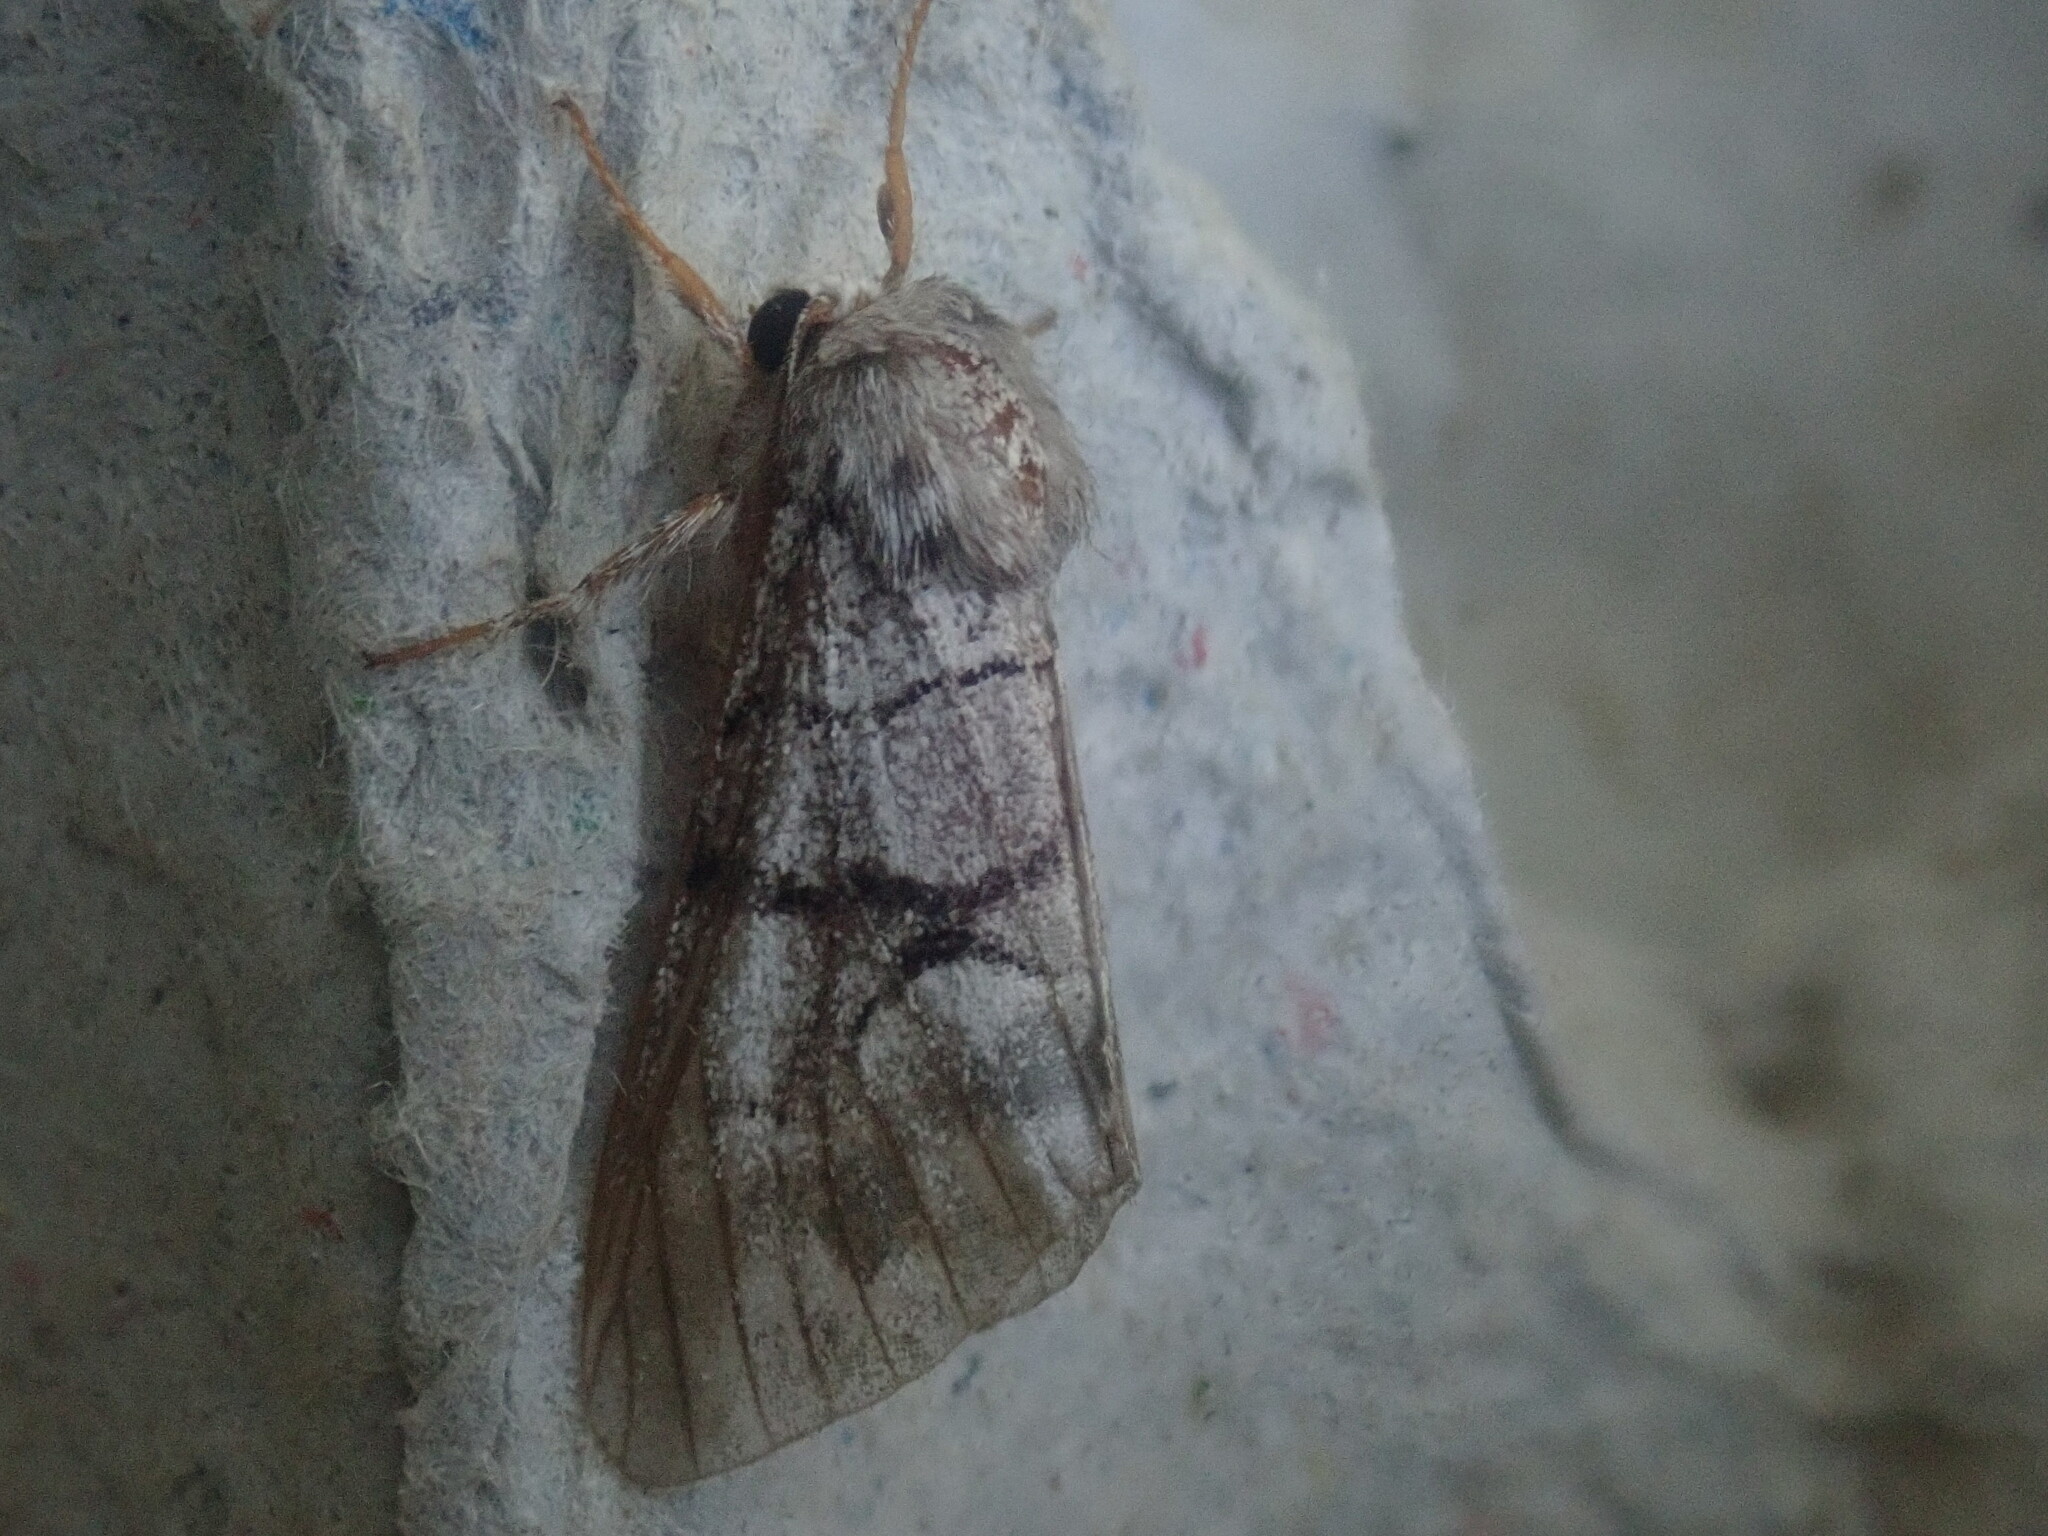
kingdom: Animalia
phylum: Arthropoda
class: Insecta
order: Lepidoptera
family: Noctuidae
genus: Panthea
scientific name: Panthea furcilla
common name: Eastern panthea moth
